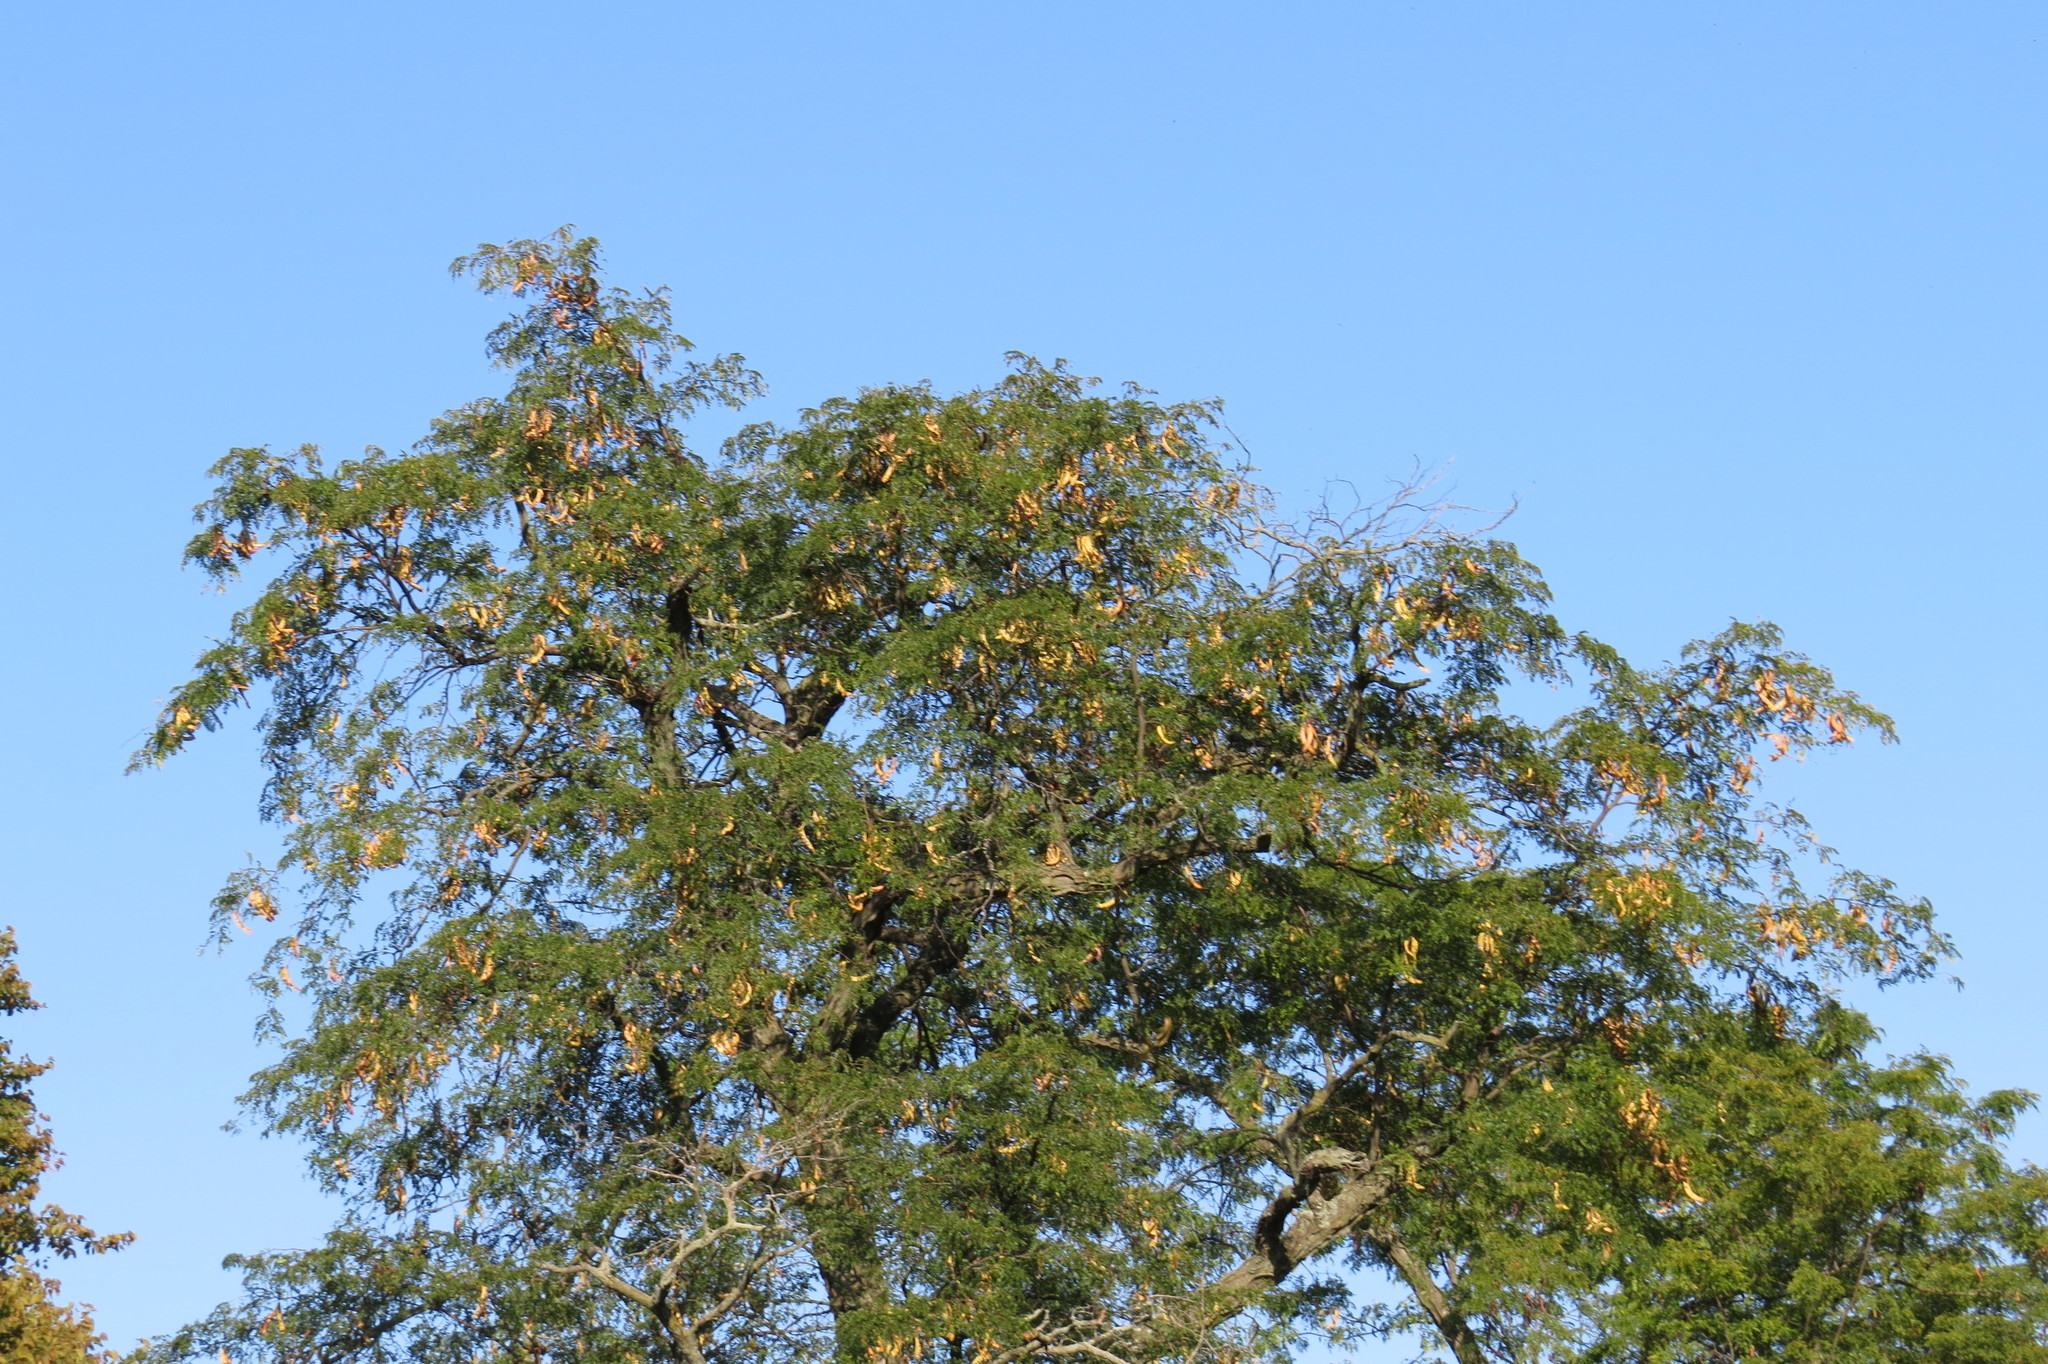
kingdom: Plantae
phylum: Tracheophyta
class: Magnoliopsida
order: Fabales
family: Fabaceae
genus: Gleditsia
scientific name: Gleditsia triacanthos
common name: Common honeylocust
